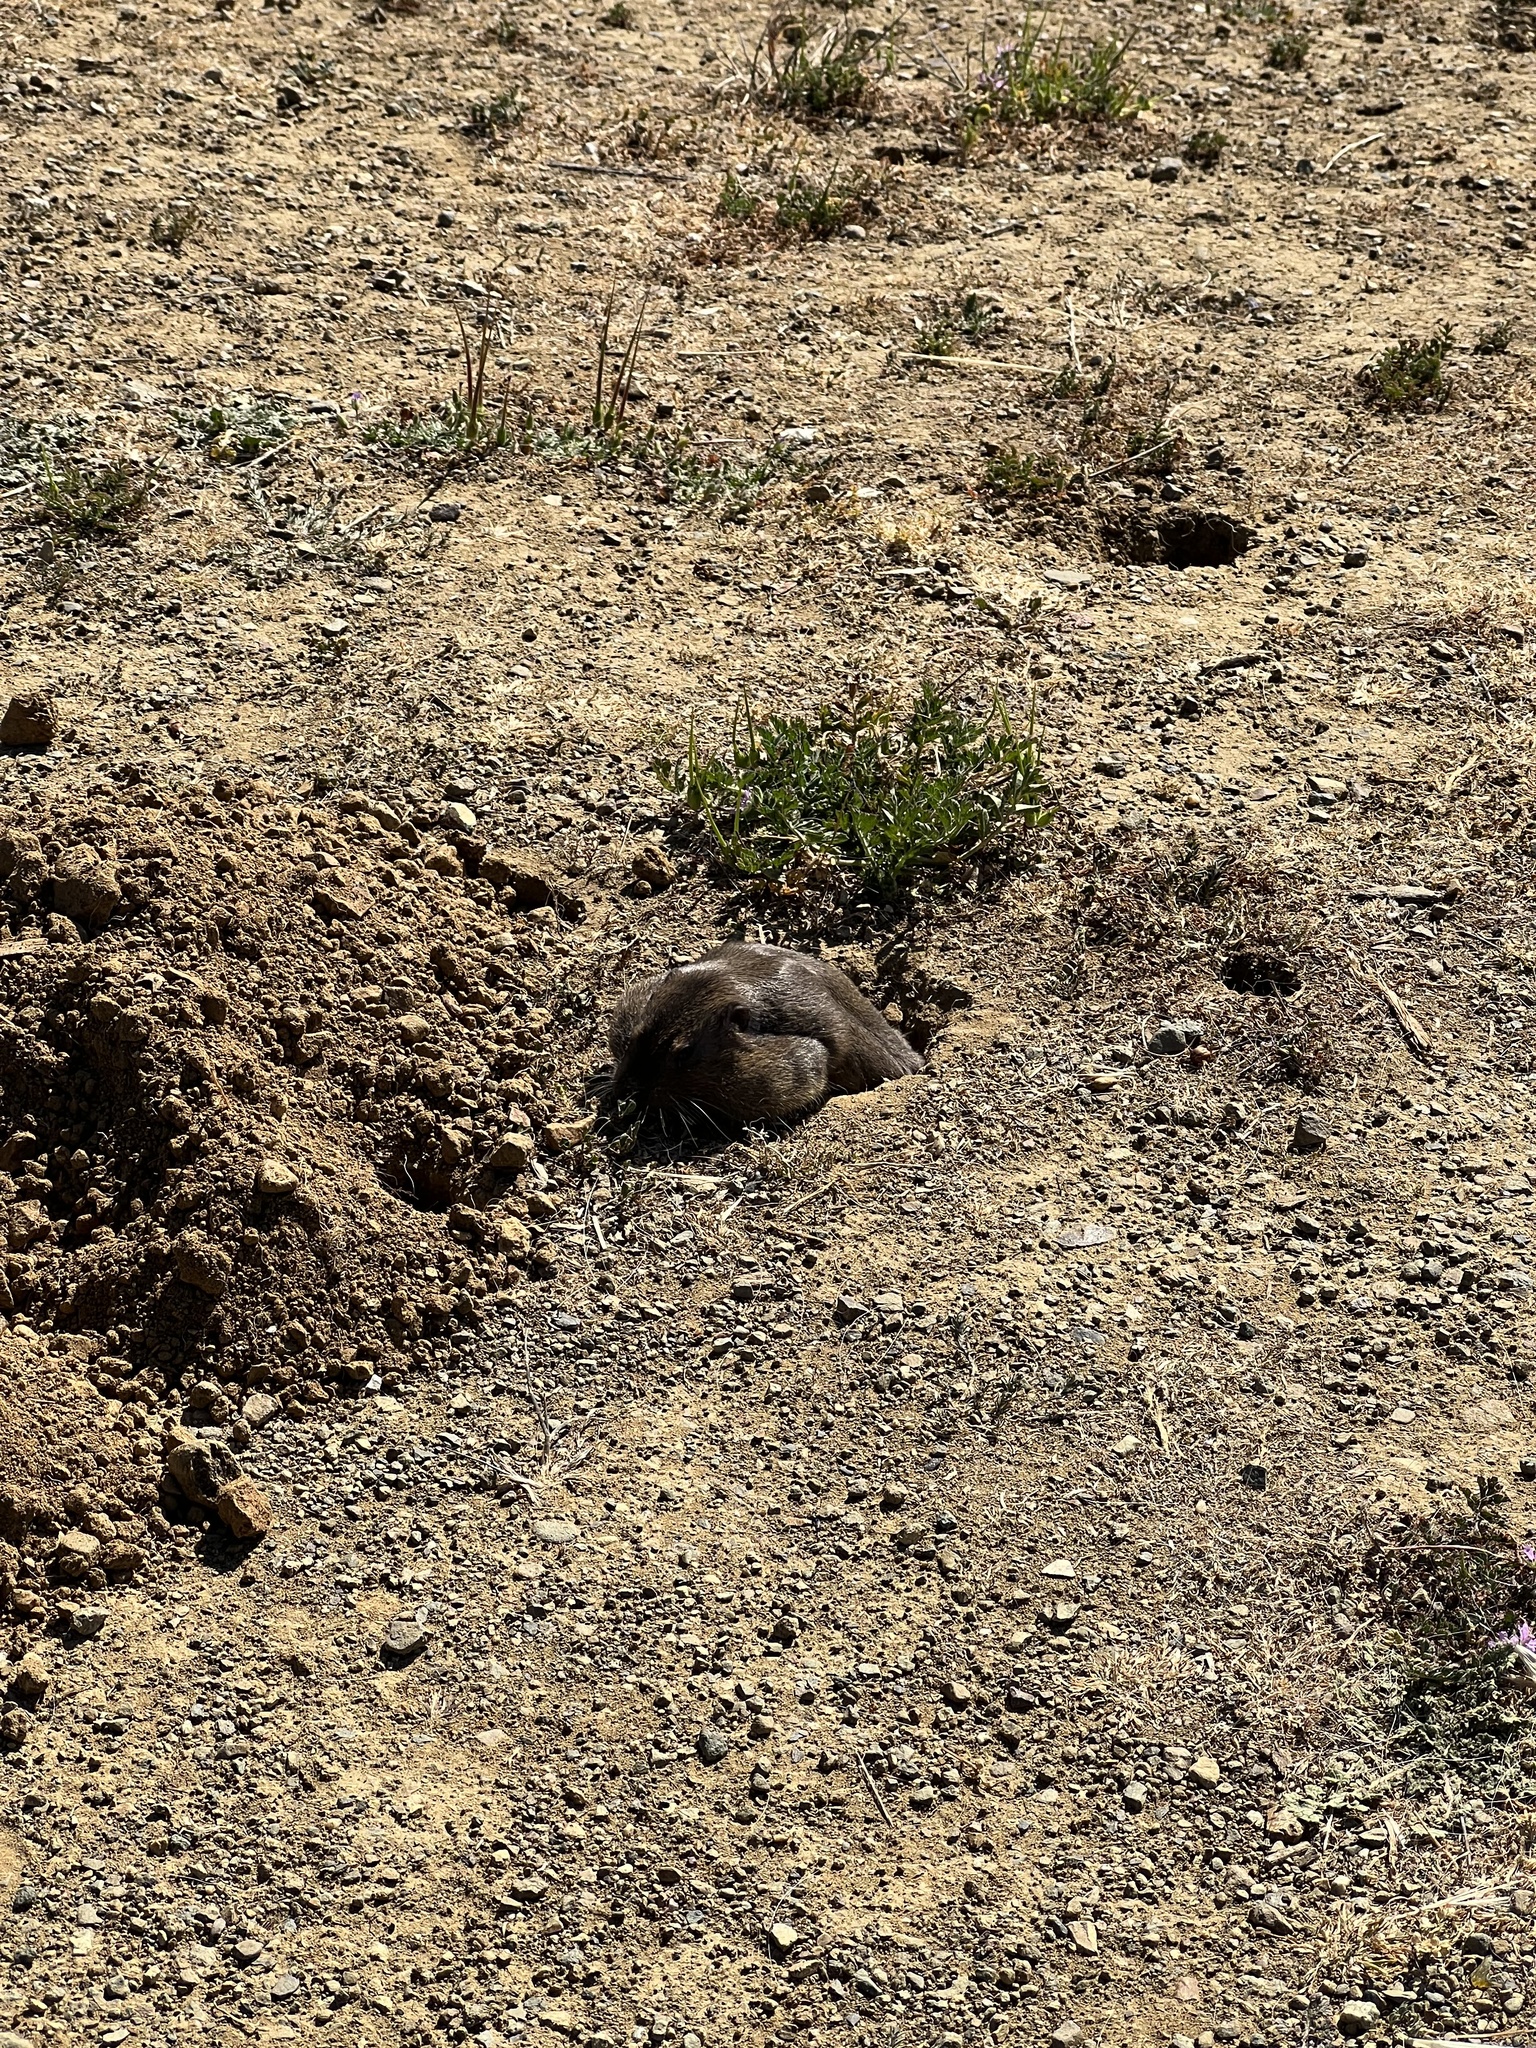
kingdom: Animalia
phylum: Chordata
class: Mammalia
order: Rodentia
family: Geomyidae
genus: Thomomys
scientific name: Thomomys bottae
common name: Botta's pocket gopher
